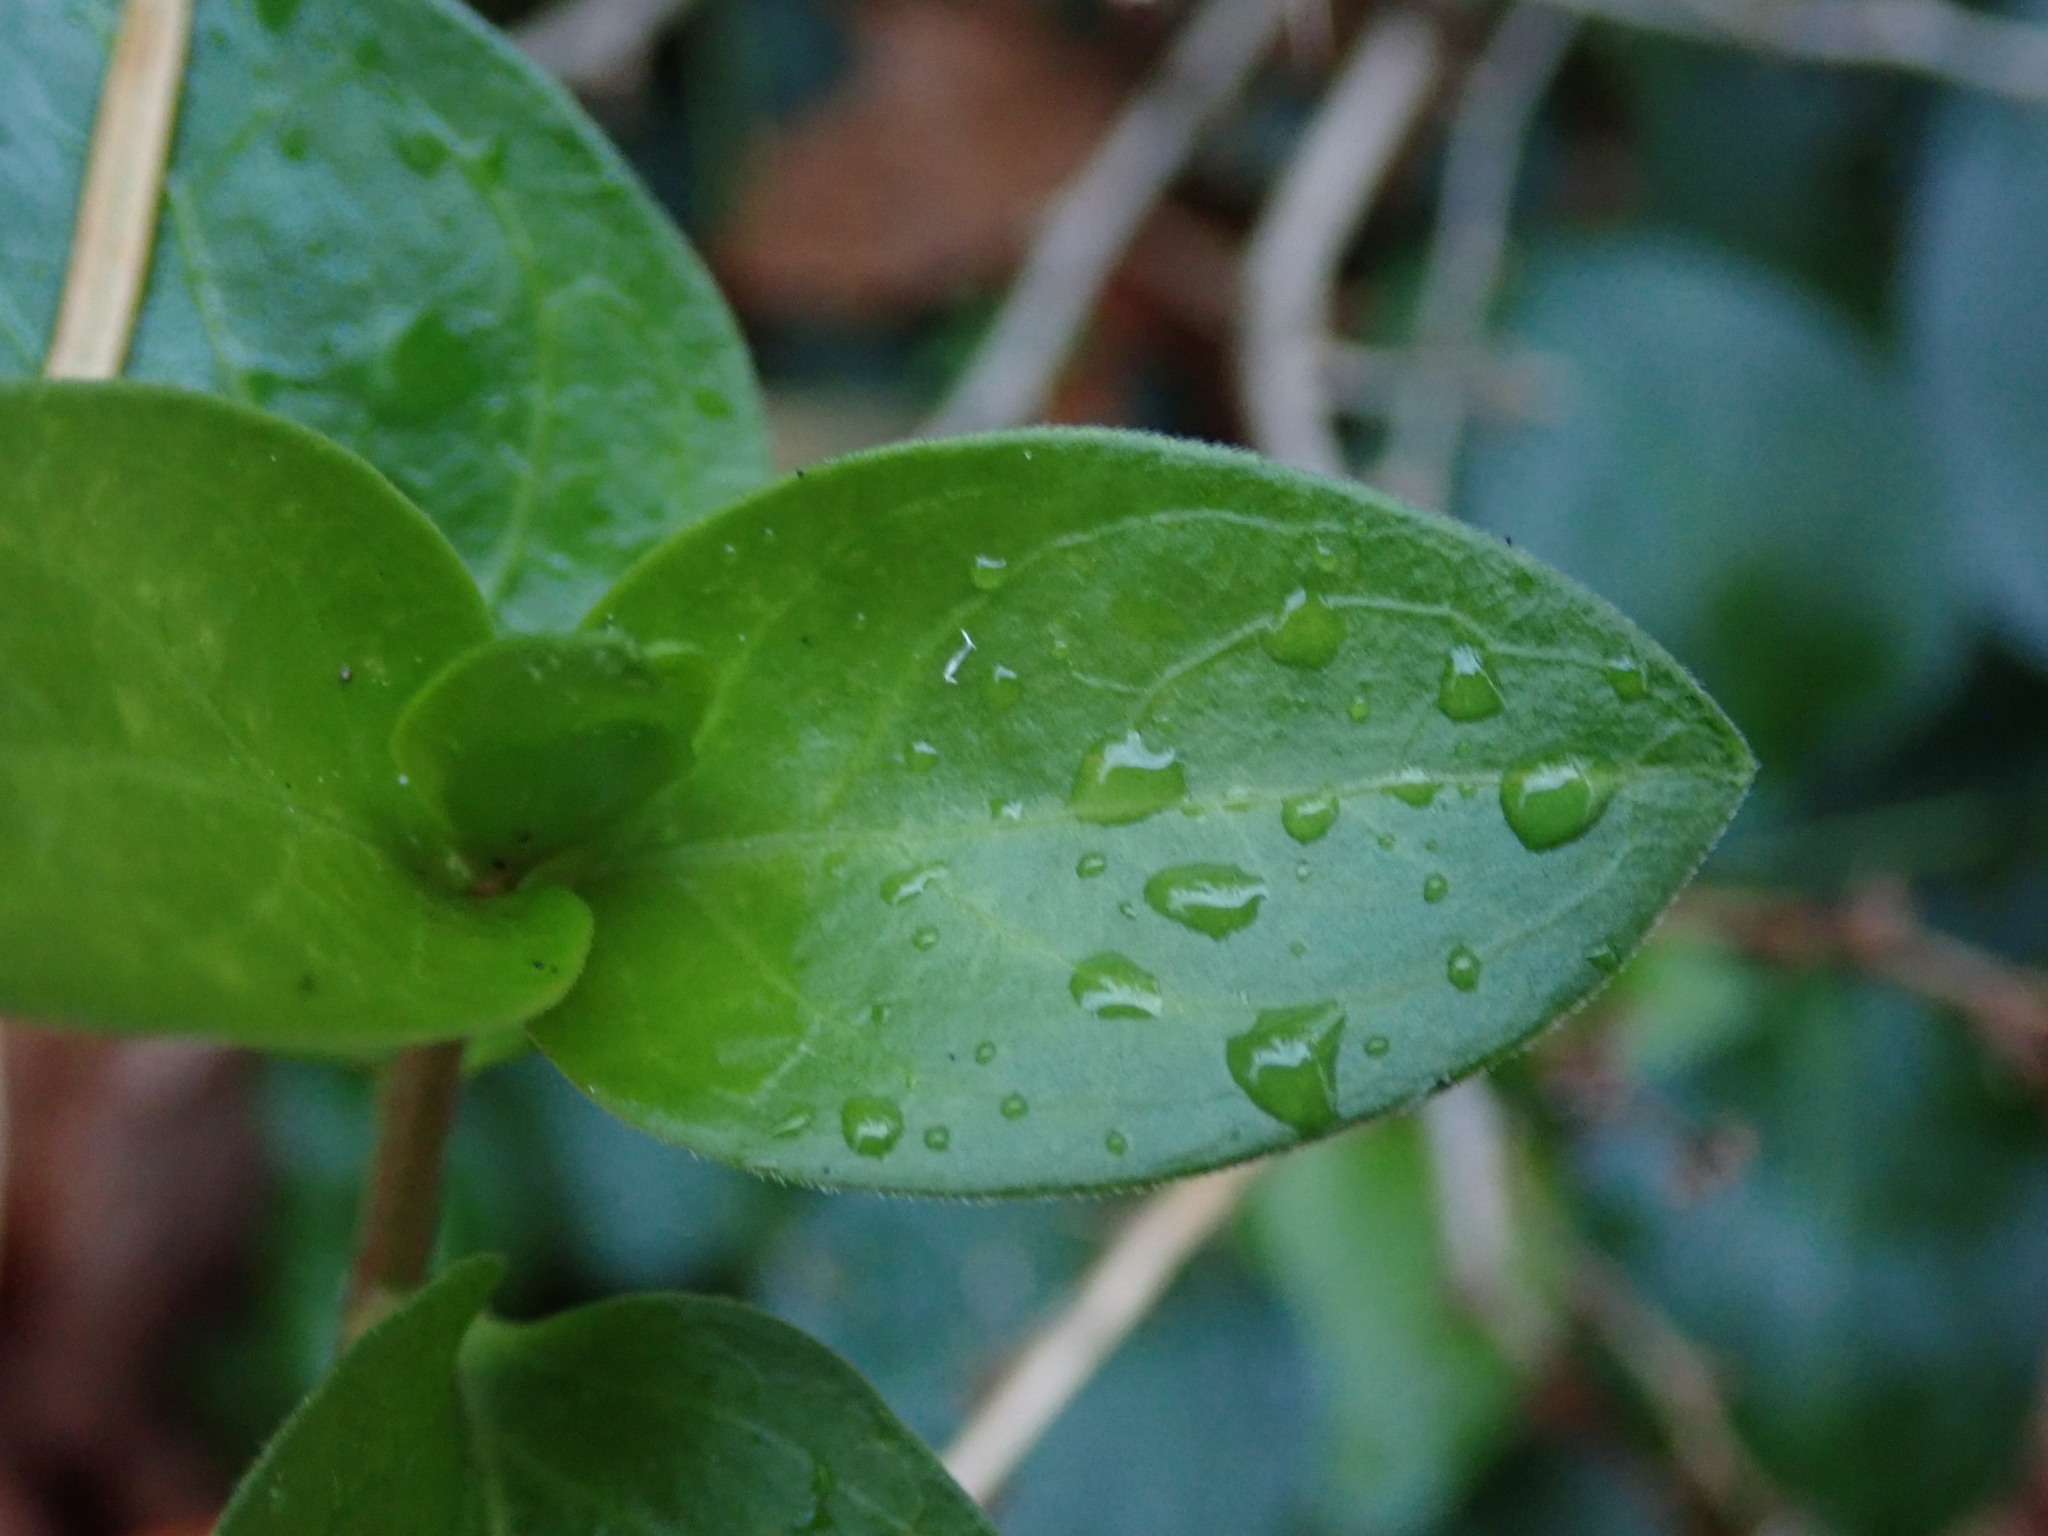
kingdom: Plantae
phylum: Tracheophyta
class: Magnoliopsida
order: Gentianales
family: Apocynaceae
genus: Vinca
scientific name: Vinca major
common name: Greater periwinkle
